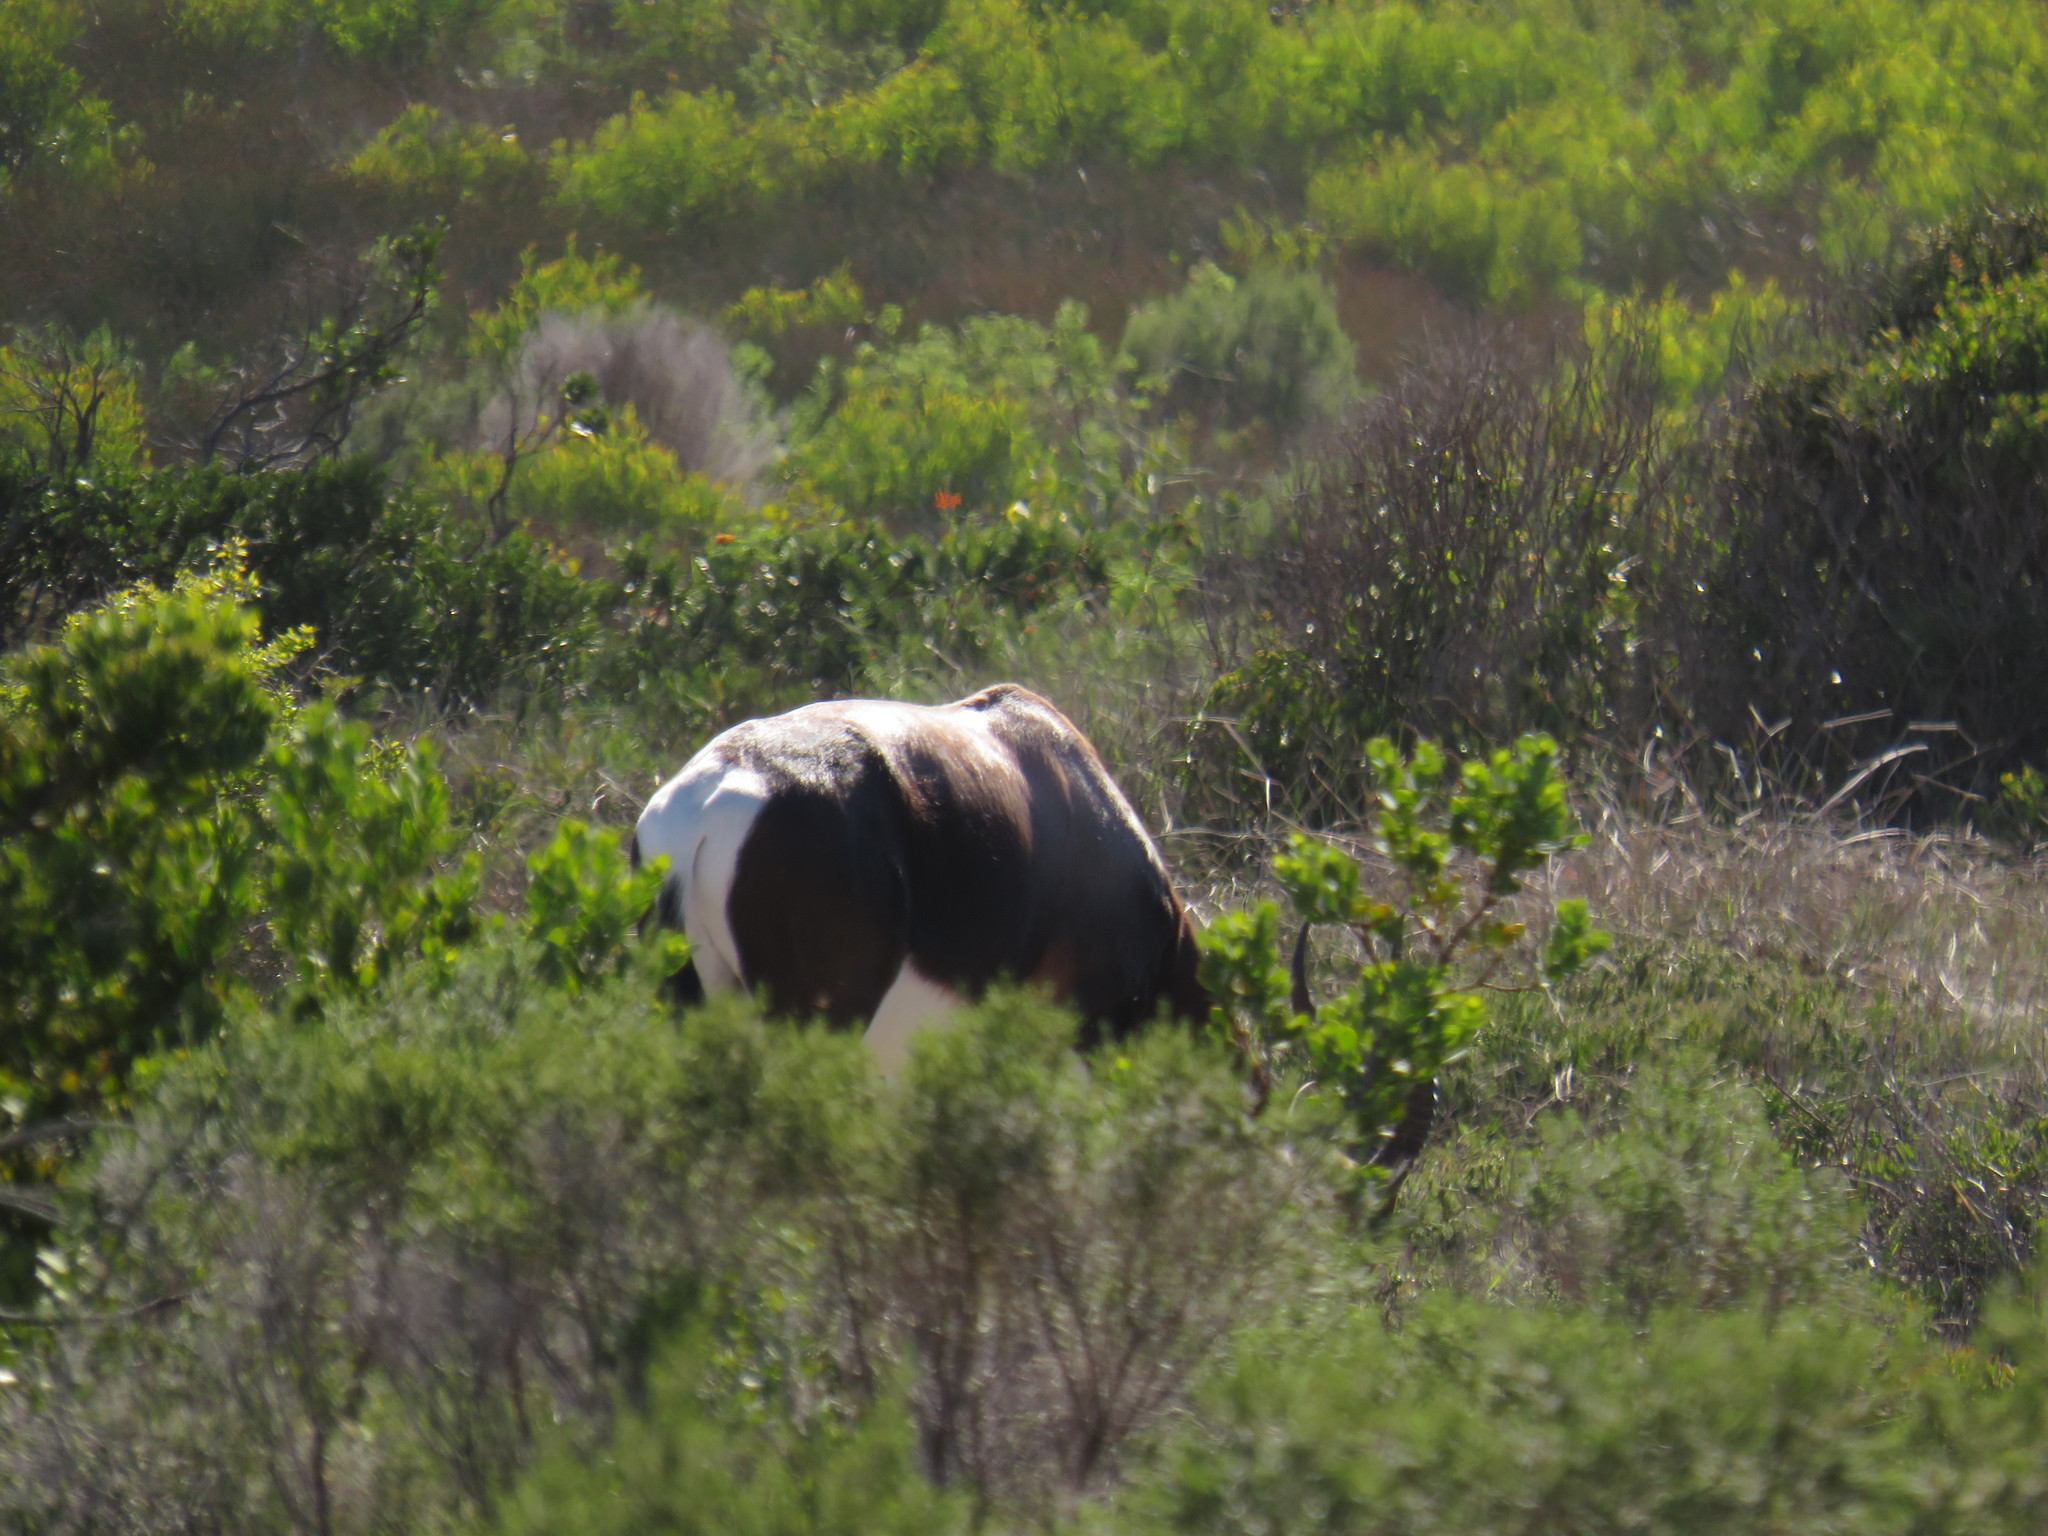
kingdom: Animalia
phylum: Chordata
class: Mammalia
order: Artiodactyla
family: Bovidae
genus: Damaliscus
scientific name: Damaliscus pygargus
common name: Bontebok
